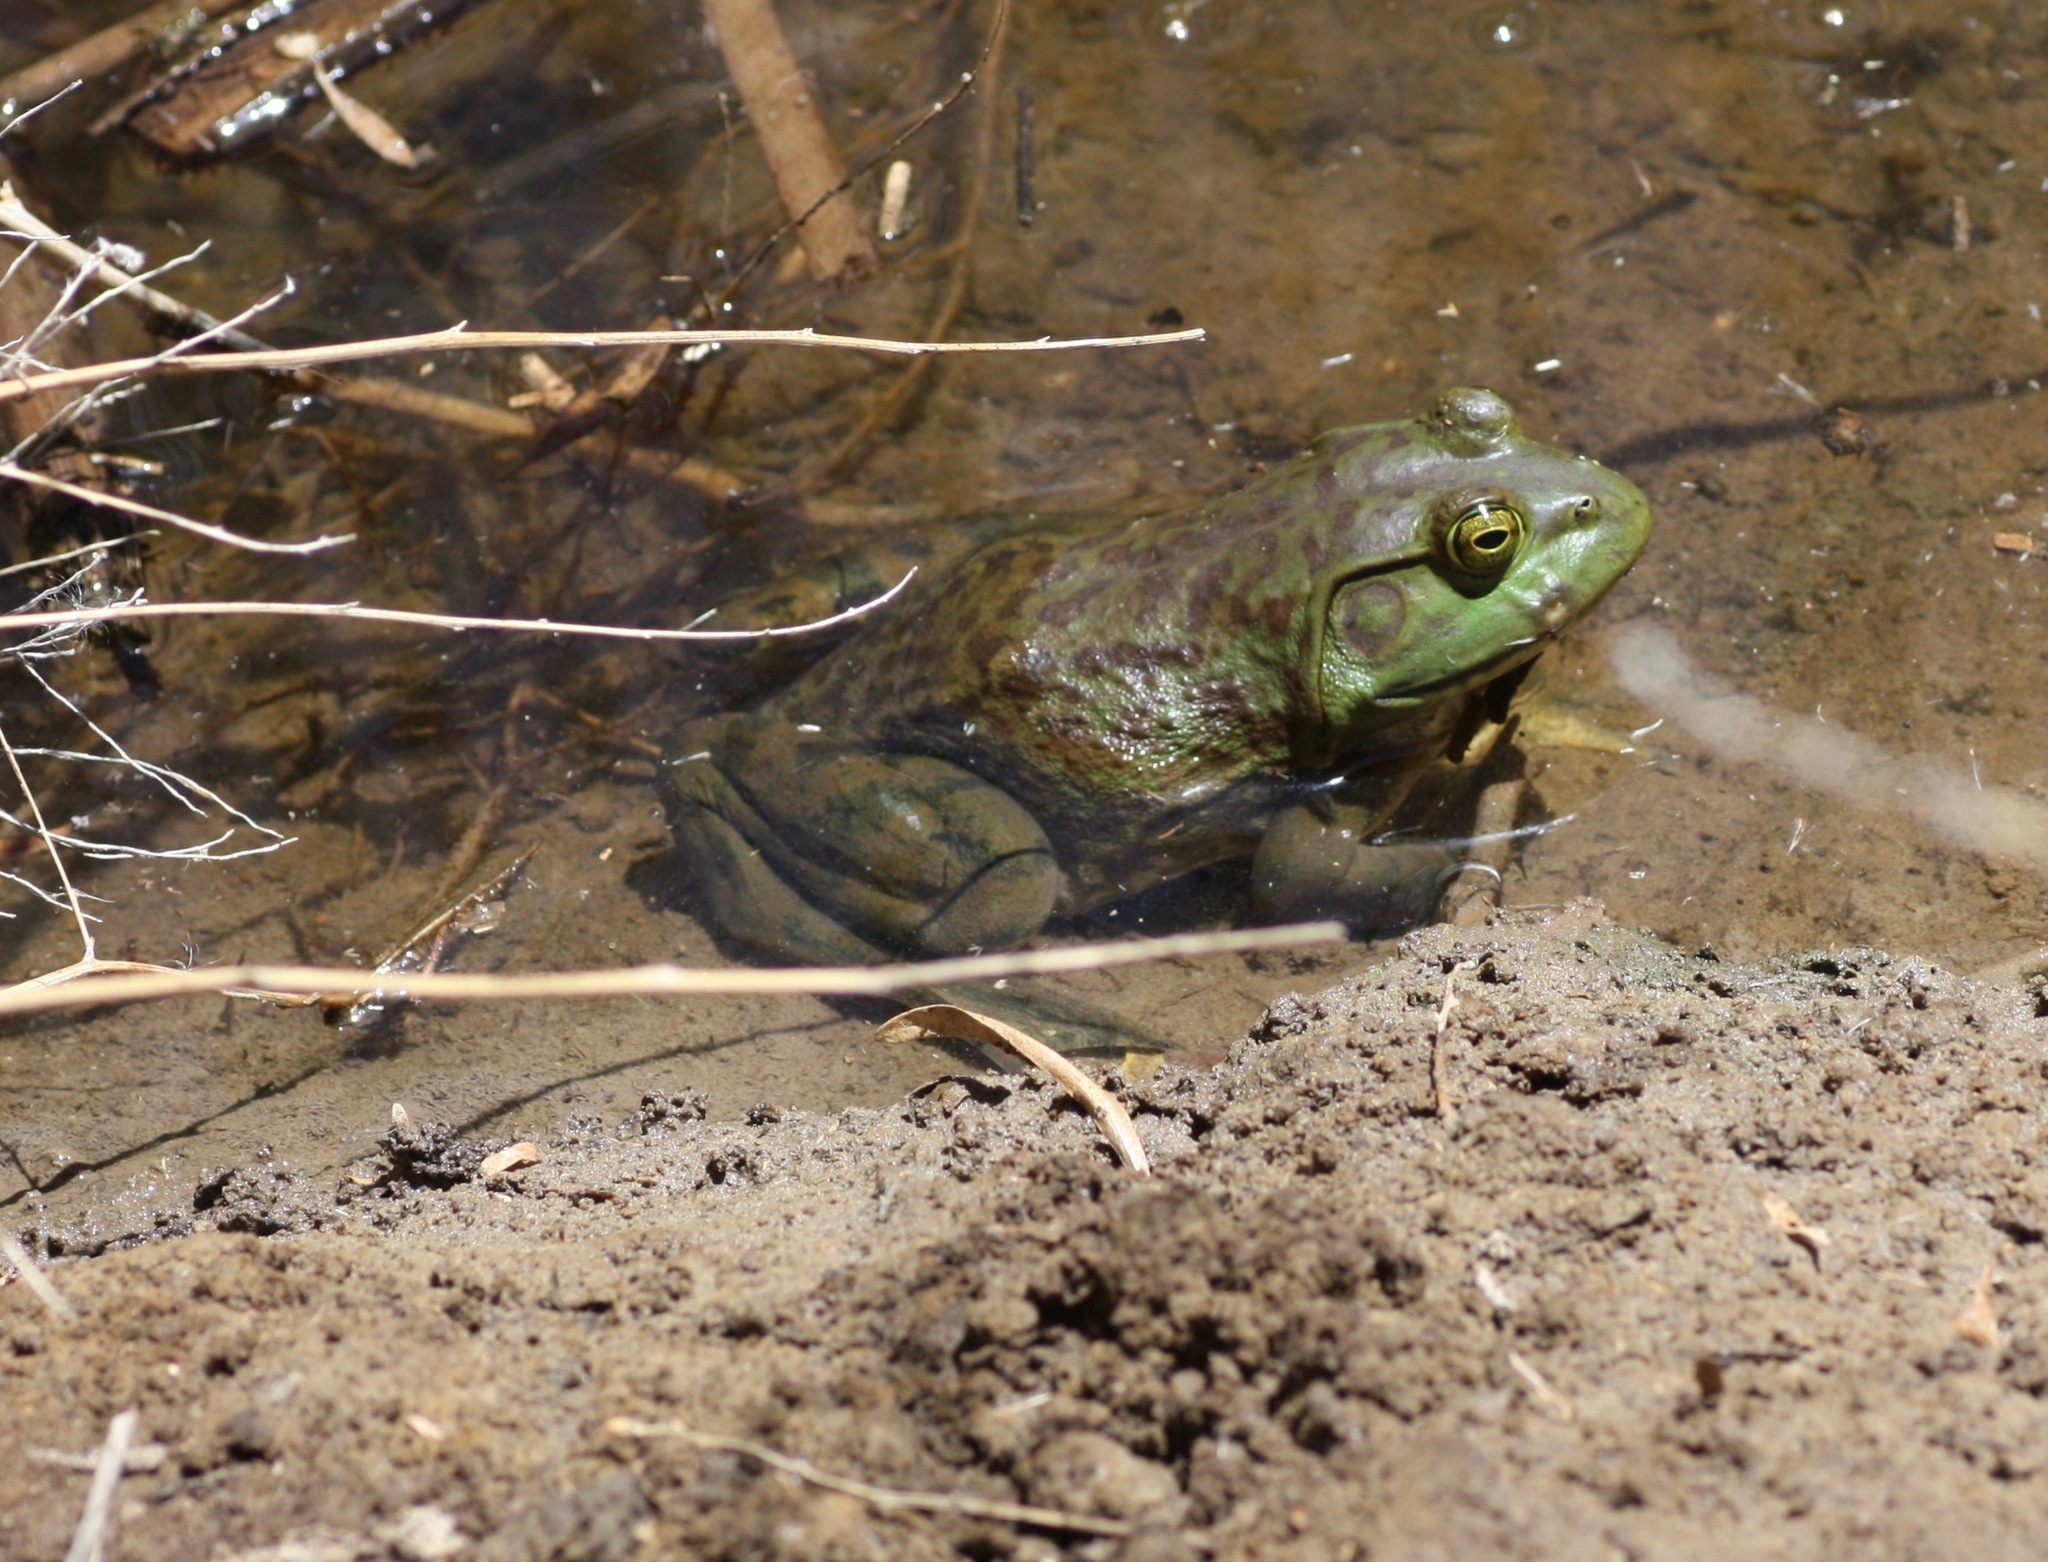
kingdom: Animalia
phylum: Chordata
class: Amphibia
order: Anura
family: Ranidae
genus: Lithobates
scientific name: Lithobates catesbeianus
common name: American bullfrog
